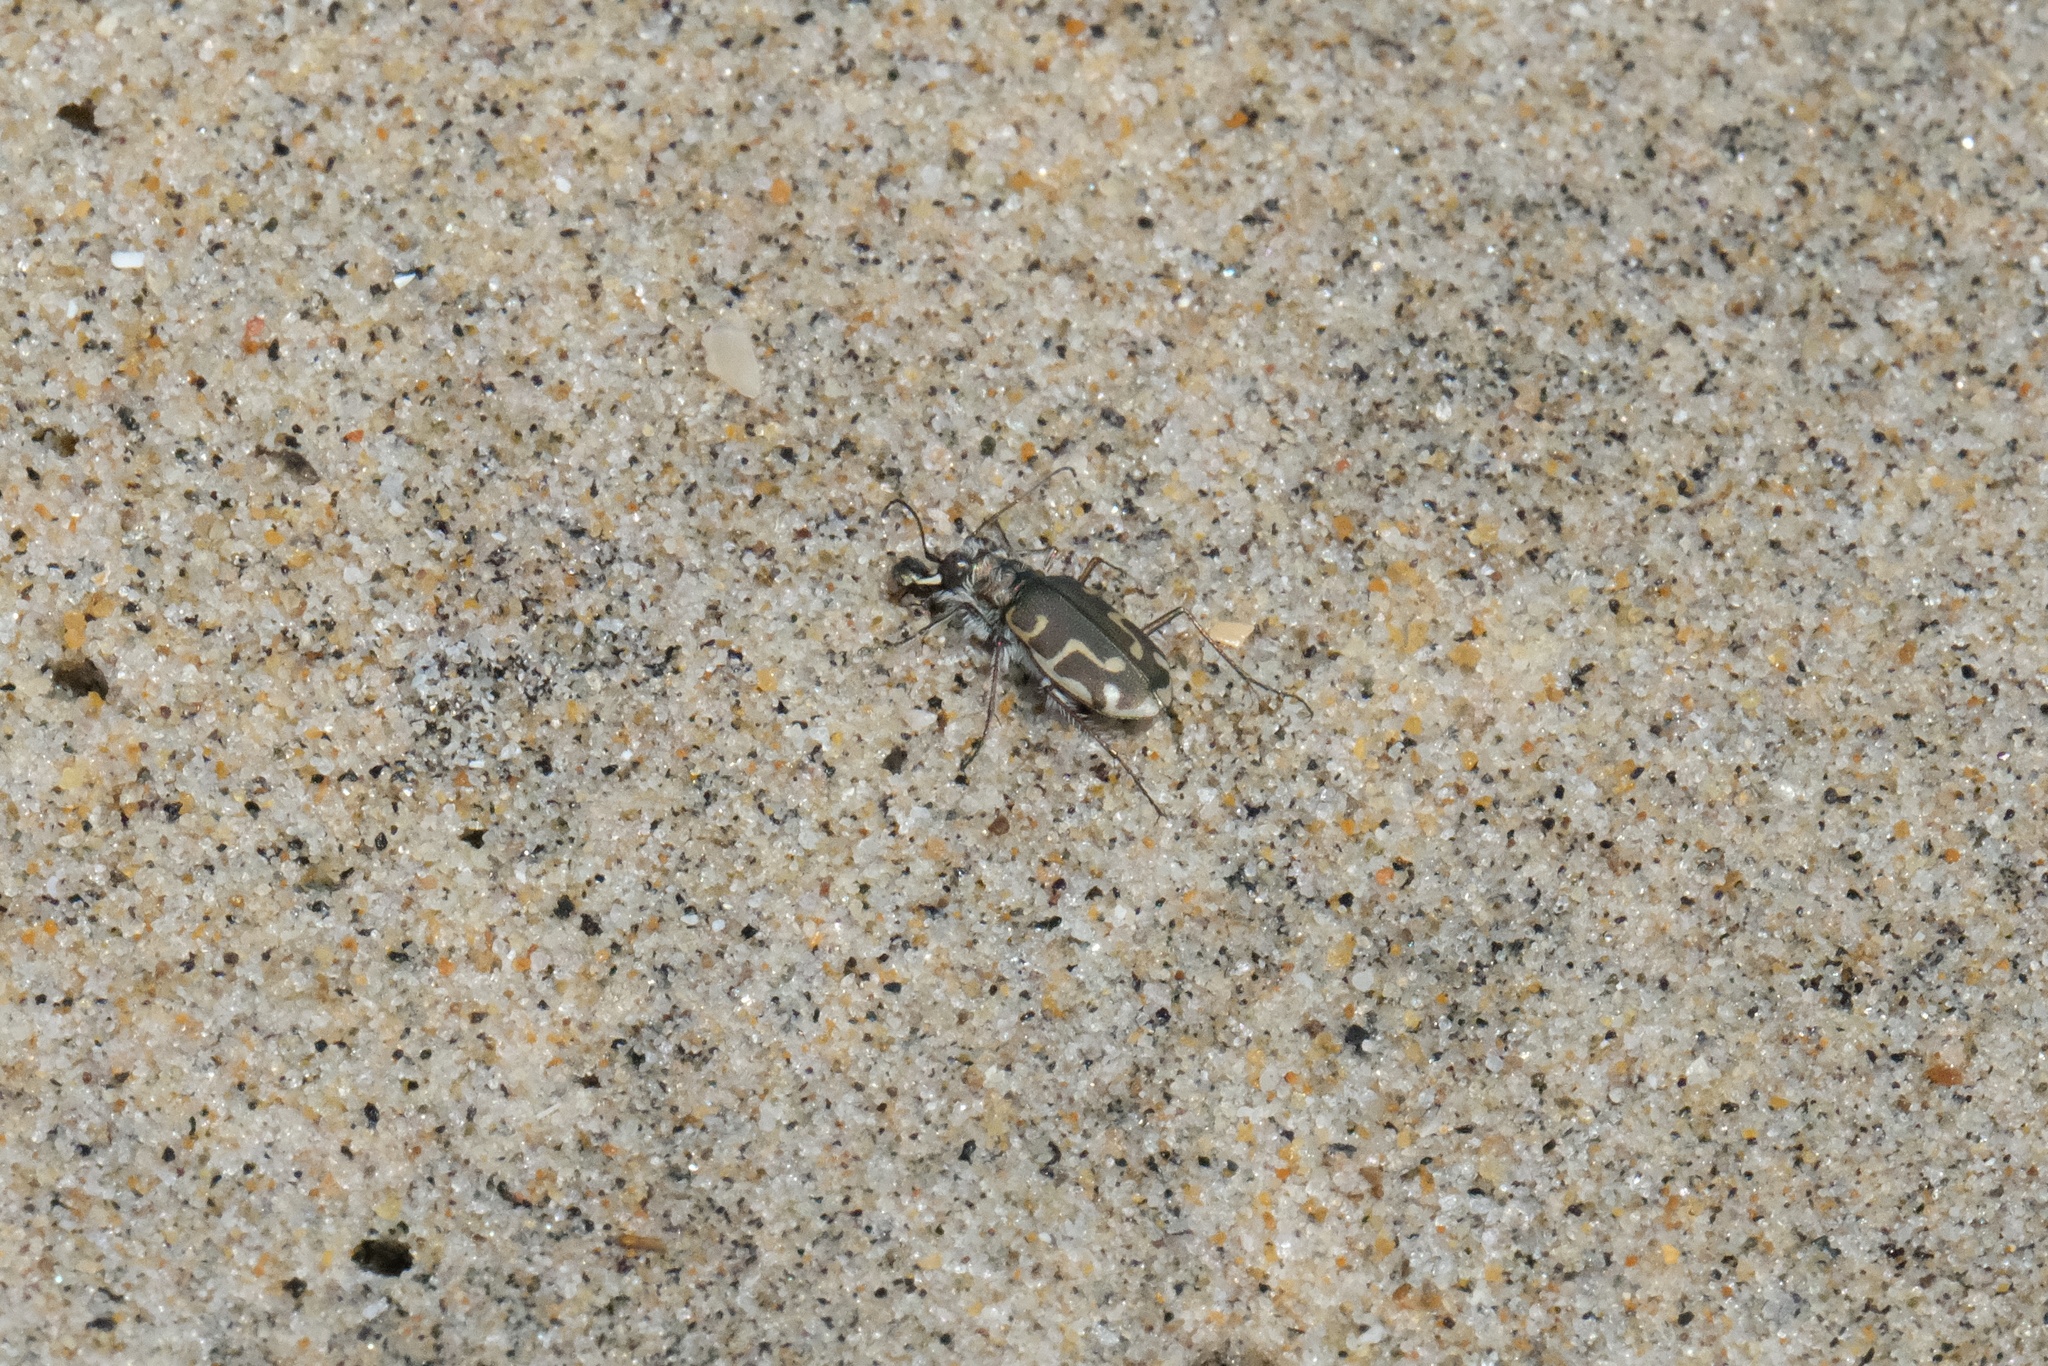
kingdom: Animalia
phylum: Arthropoda
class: Insecta
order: Coleoptera
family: Carabidae
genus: Cicindela
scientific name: Cicindela hirticollis
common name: Hairy-necked tiger beetle
